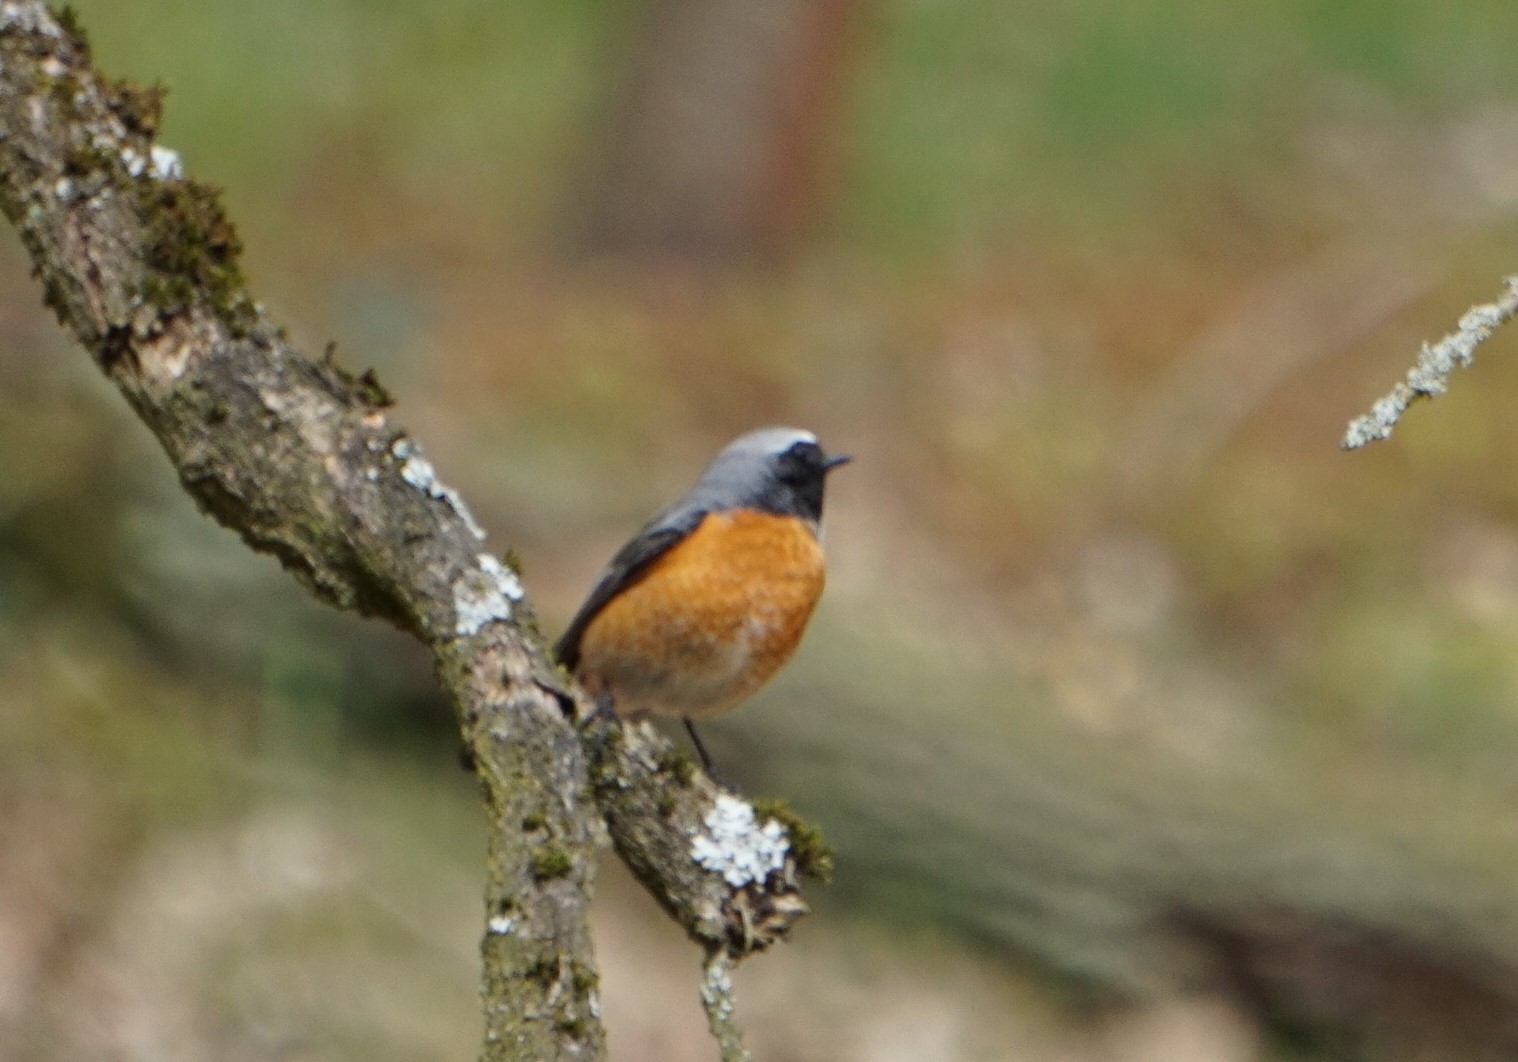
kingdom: Animalia
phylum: Chordata
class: Aves
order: Passeriformes
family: Muscicapidae
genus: Phoenicurus
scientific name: Phoenicurus phoenicurus
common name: Common redstart
